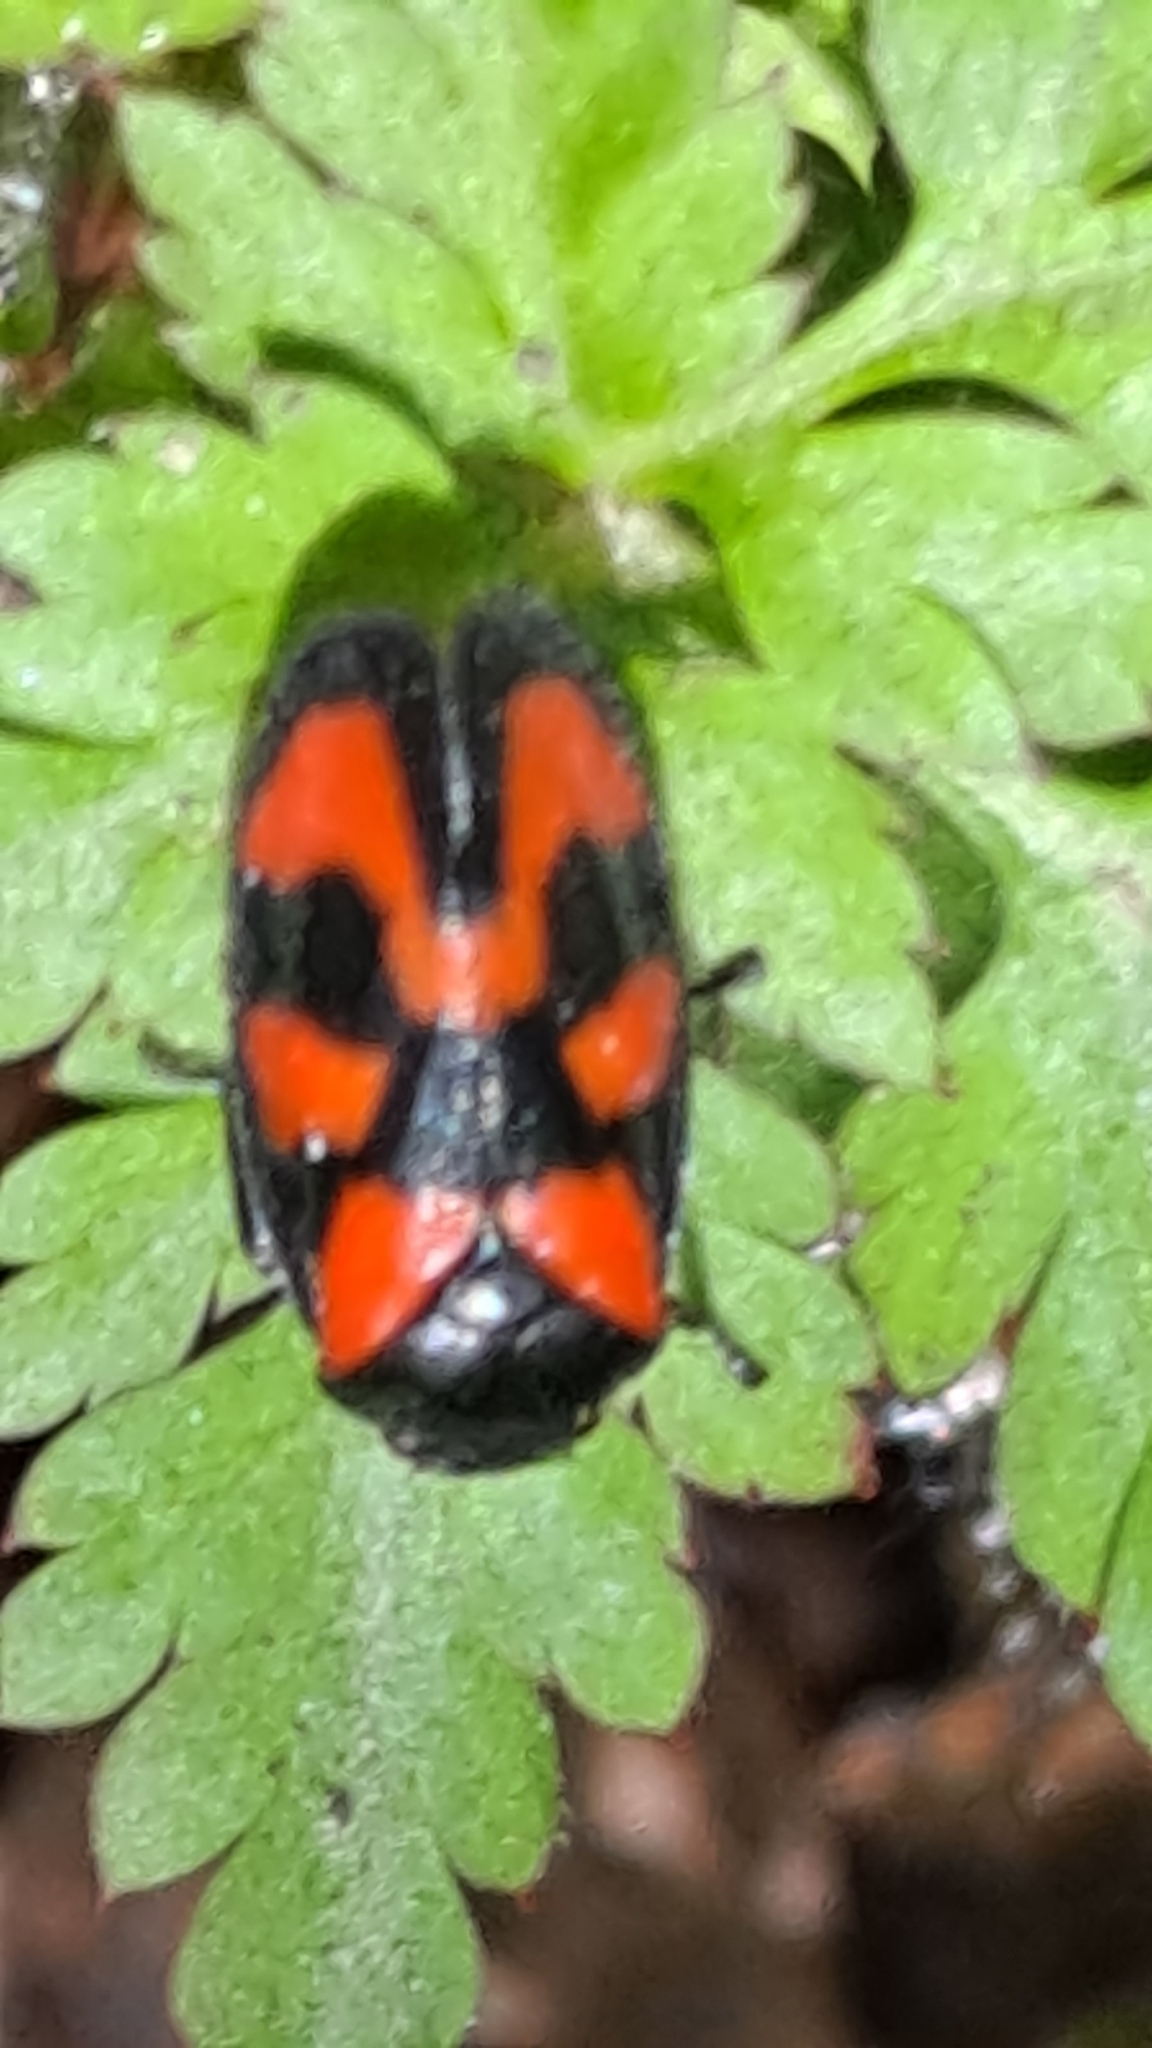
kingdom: Animalia
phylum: Arthropoda
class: Insecta
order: Hemiptera
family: Cercopidae
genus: Cercopis
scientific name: Cercopis vulnerata
